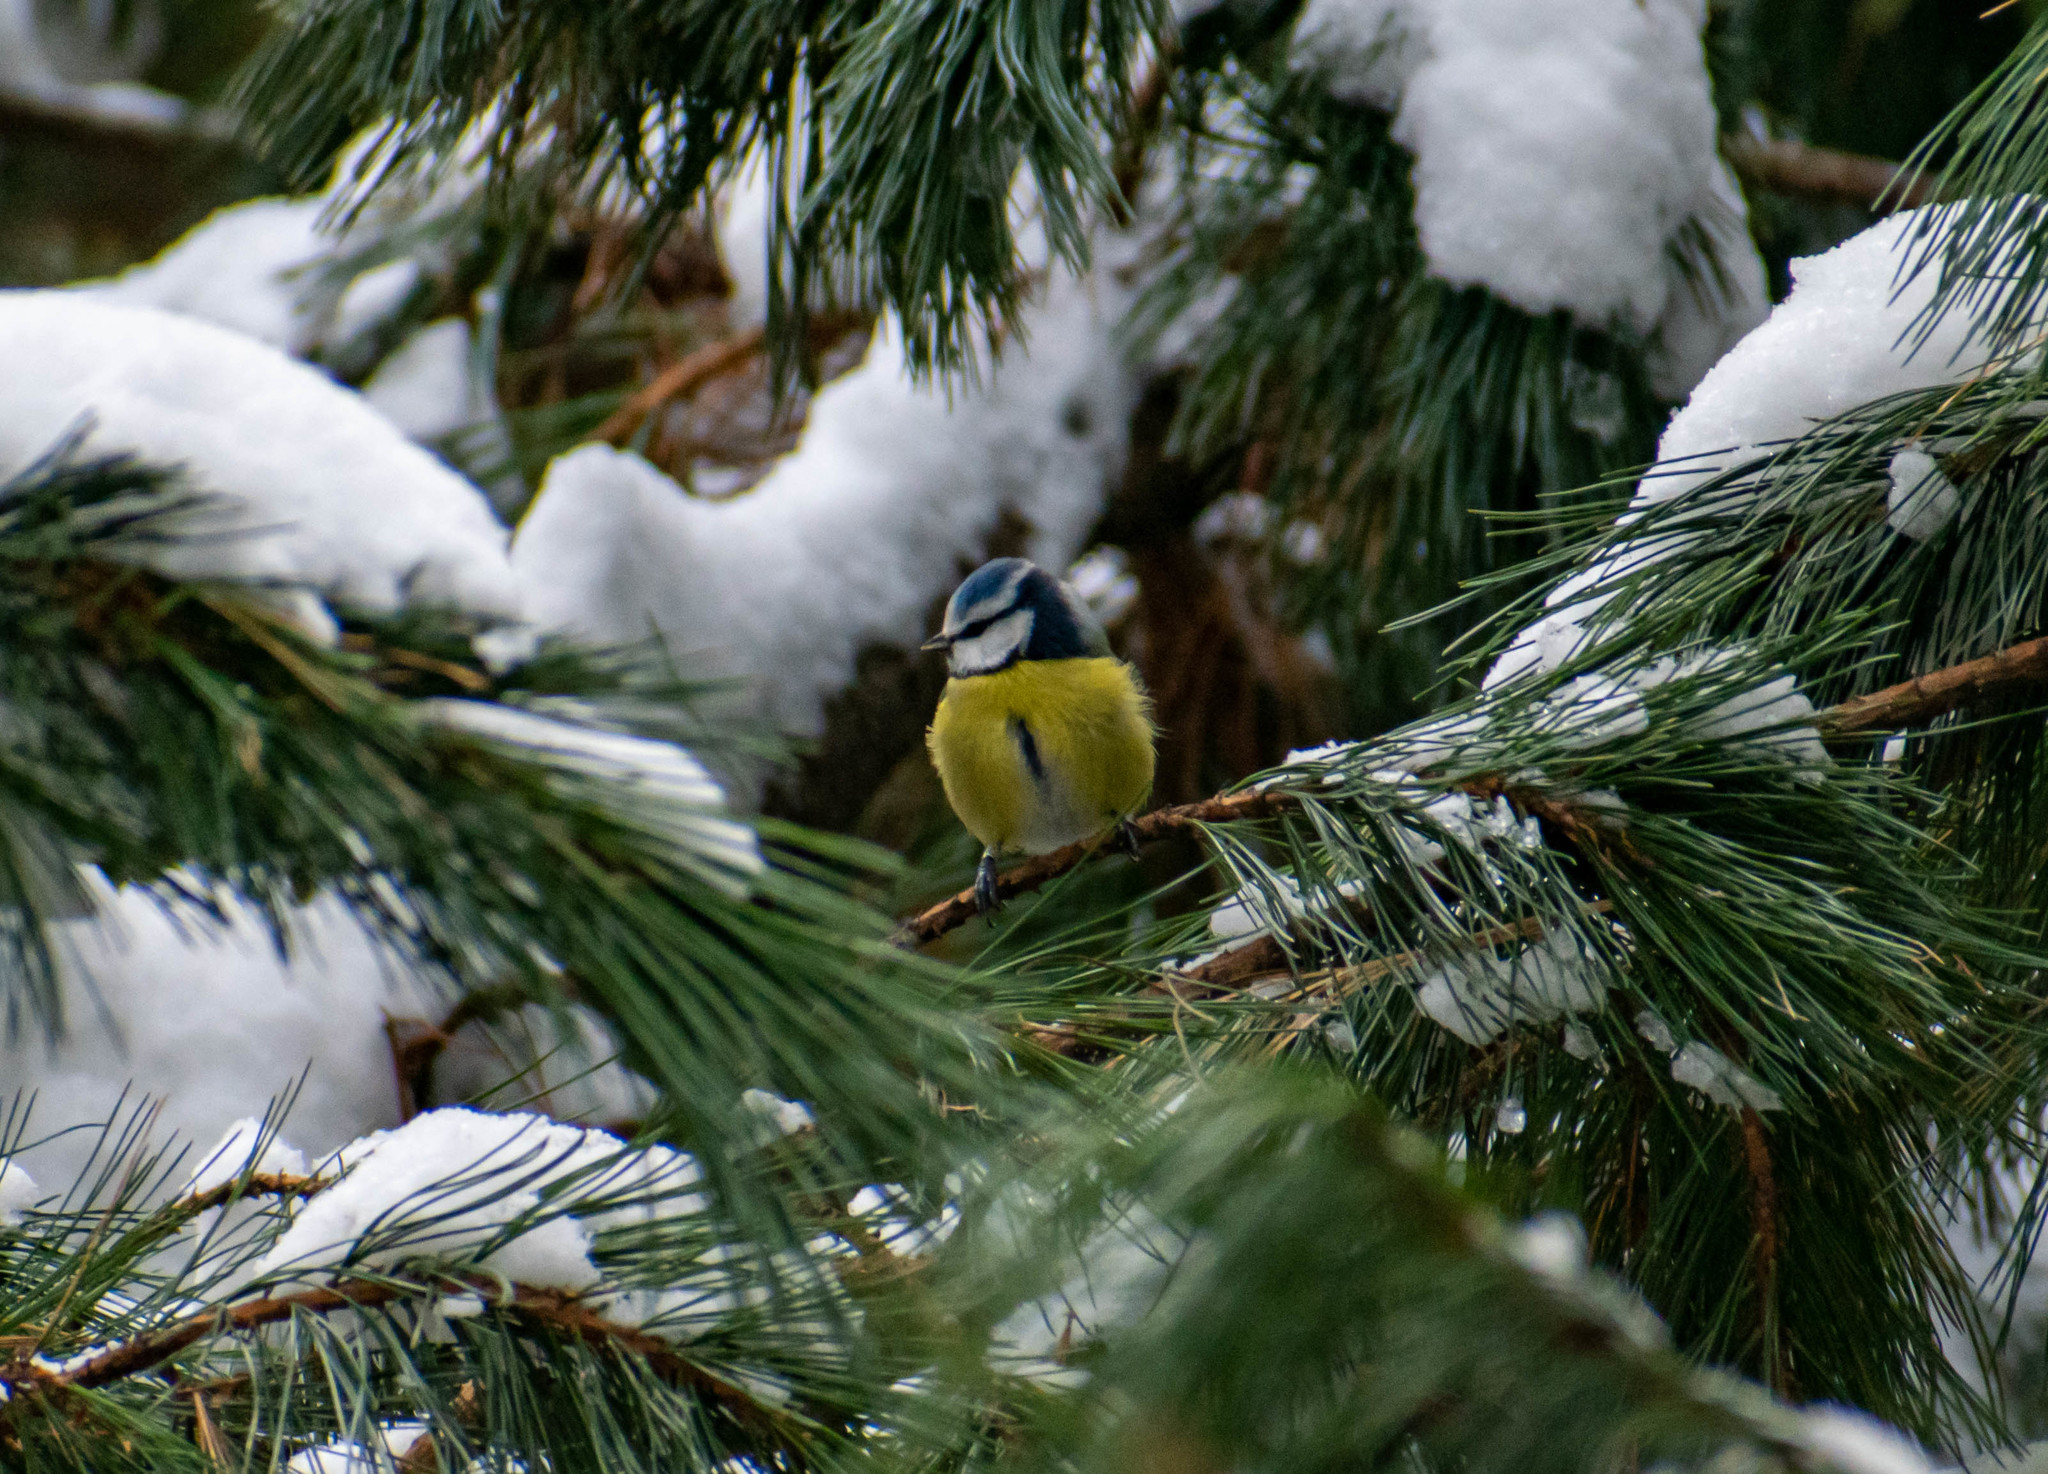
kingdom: Animalia
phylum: Chordata
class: Aves
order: Passeriformes
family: Paridae
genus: Cyanistes
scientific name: Cyanistes caeruleus
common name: Eurasian blue tit
